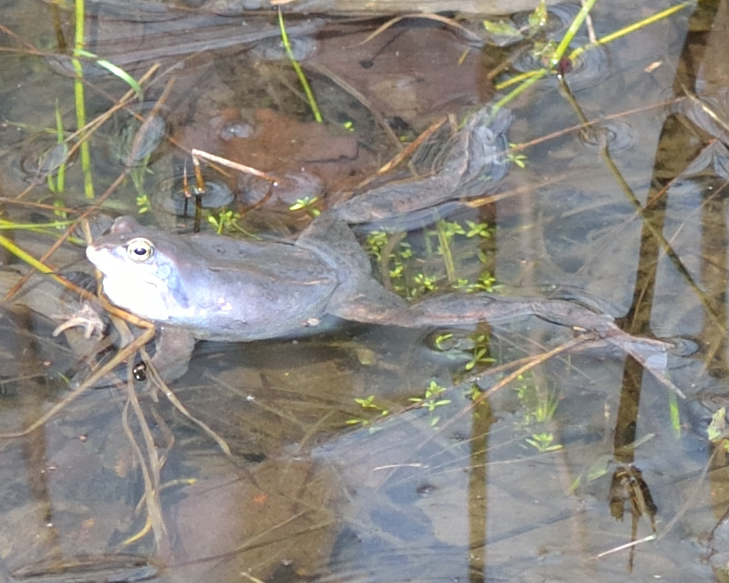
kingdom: Animalia
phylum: Chordata
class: Amphibia
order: Anura
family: Ranidae
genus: Rana
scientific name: Rana arvalis
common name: Moor frog
